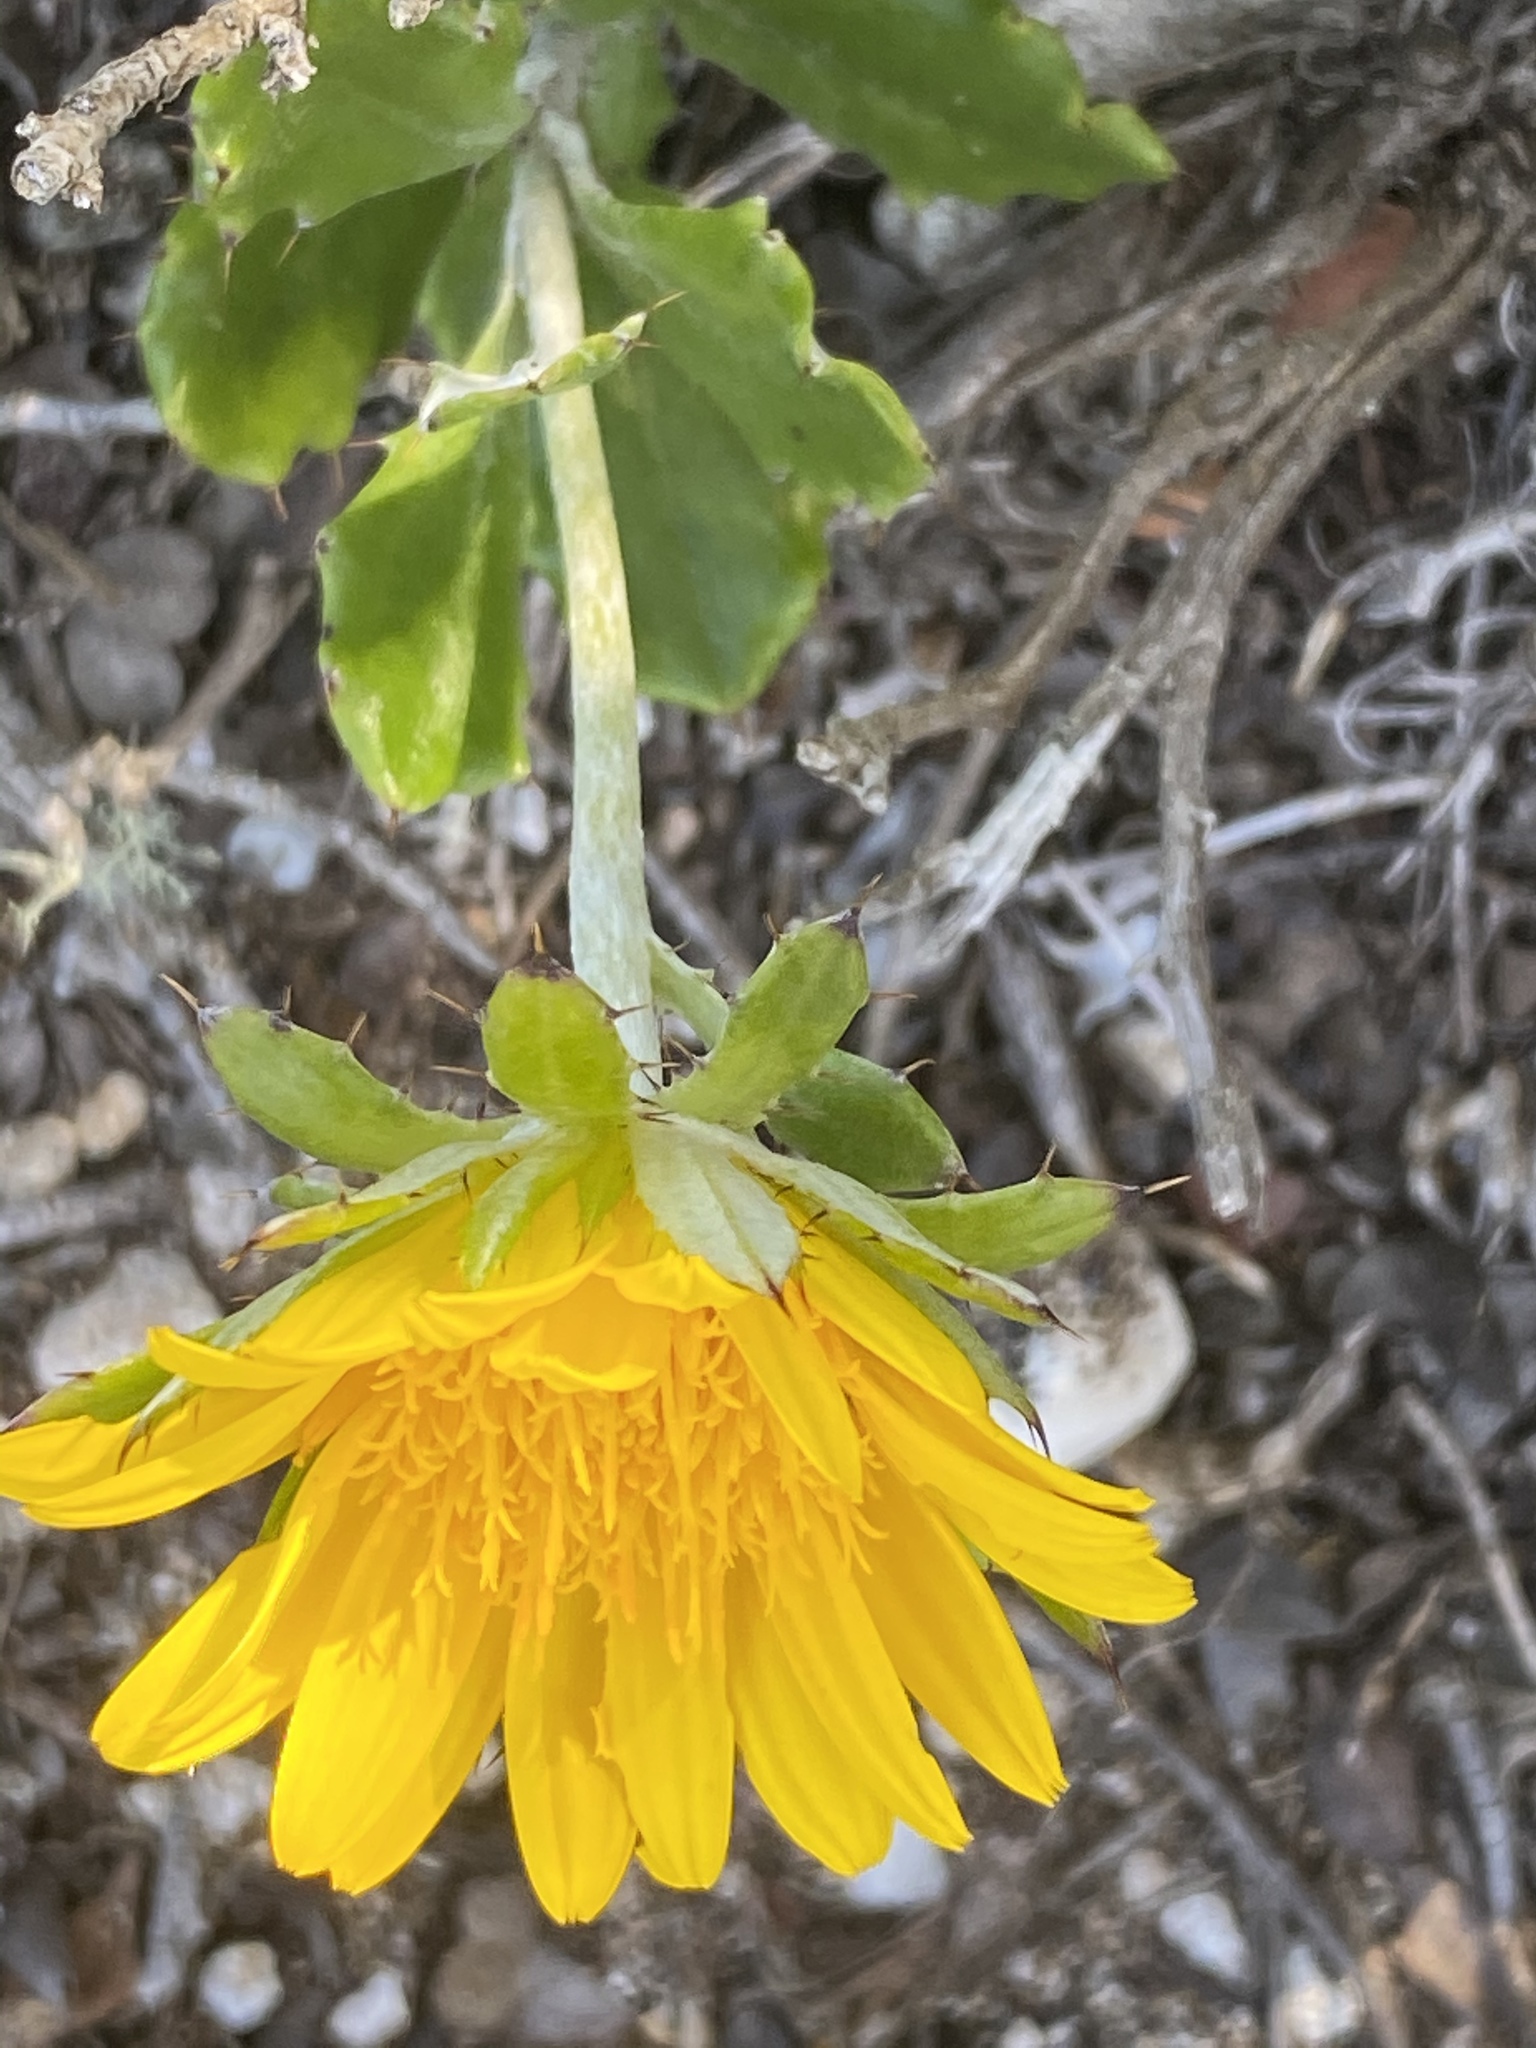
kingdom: Plantae
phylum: Tracheophyta
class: Magnoliopsida
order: Asterales
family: Asteraceae
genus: Berkheya
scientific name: Berkheya coriacea
